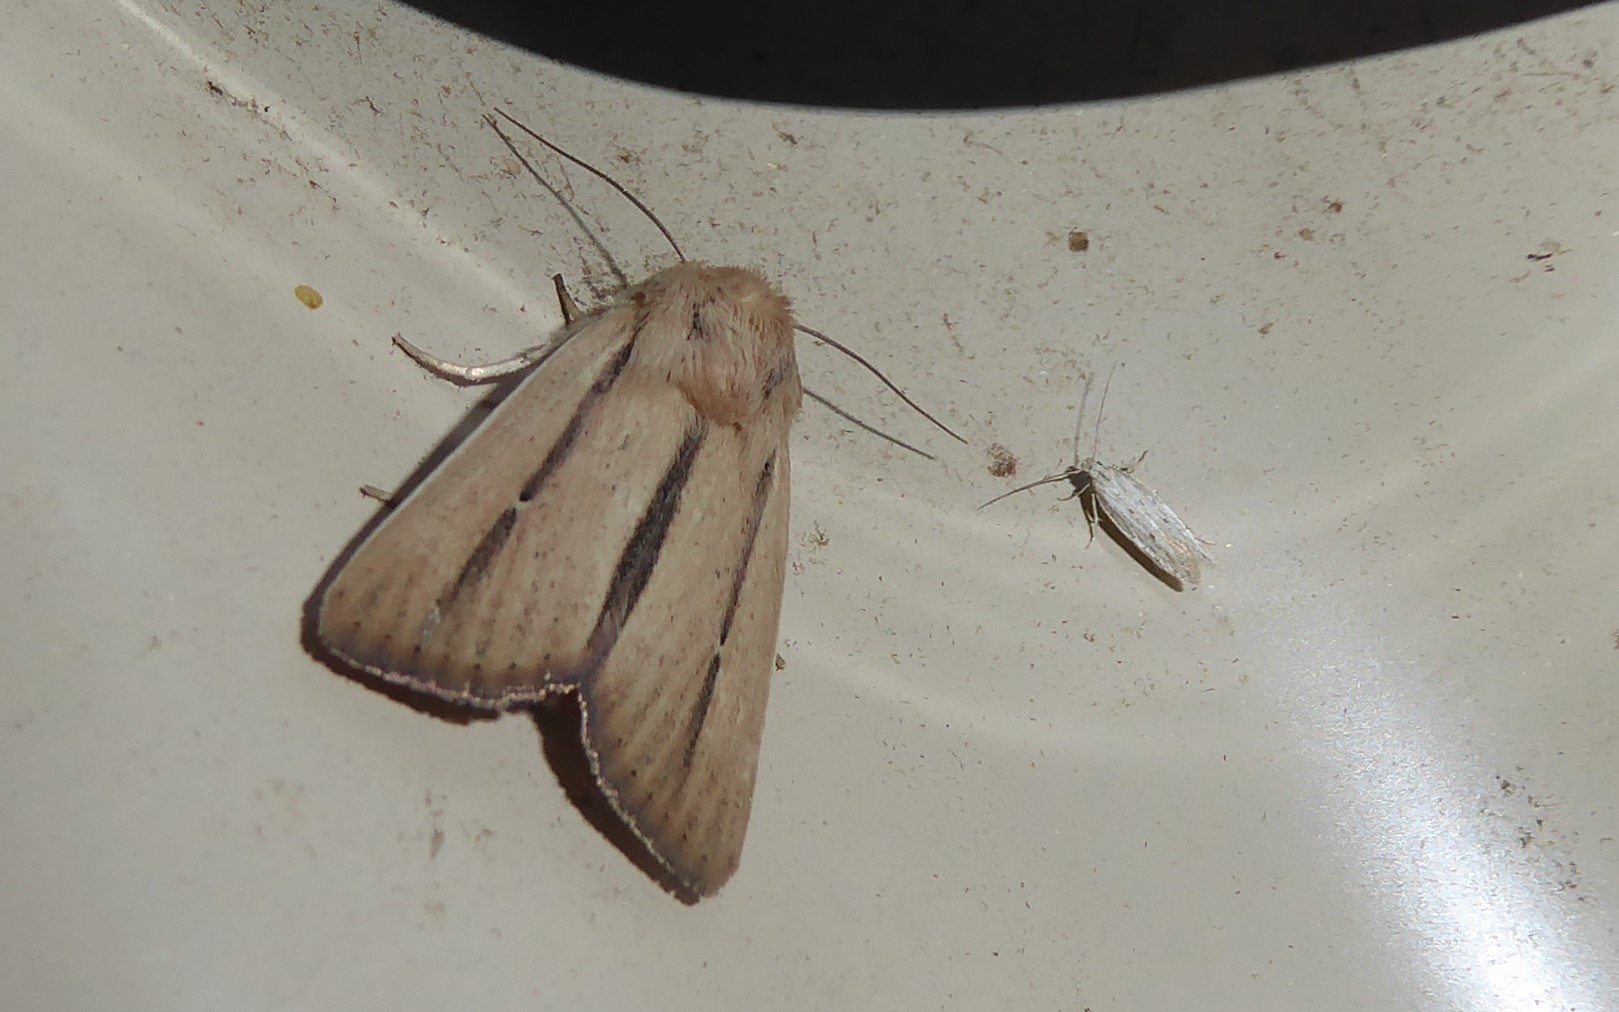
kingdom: Animalia
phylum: Arthropoda
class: Insecta
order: Lepidoptera
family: Noctuidae
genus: Leucania
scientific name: Leucania diatrecta
